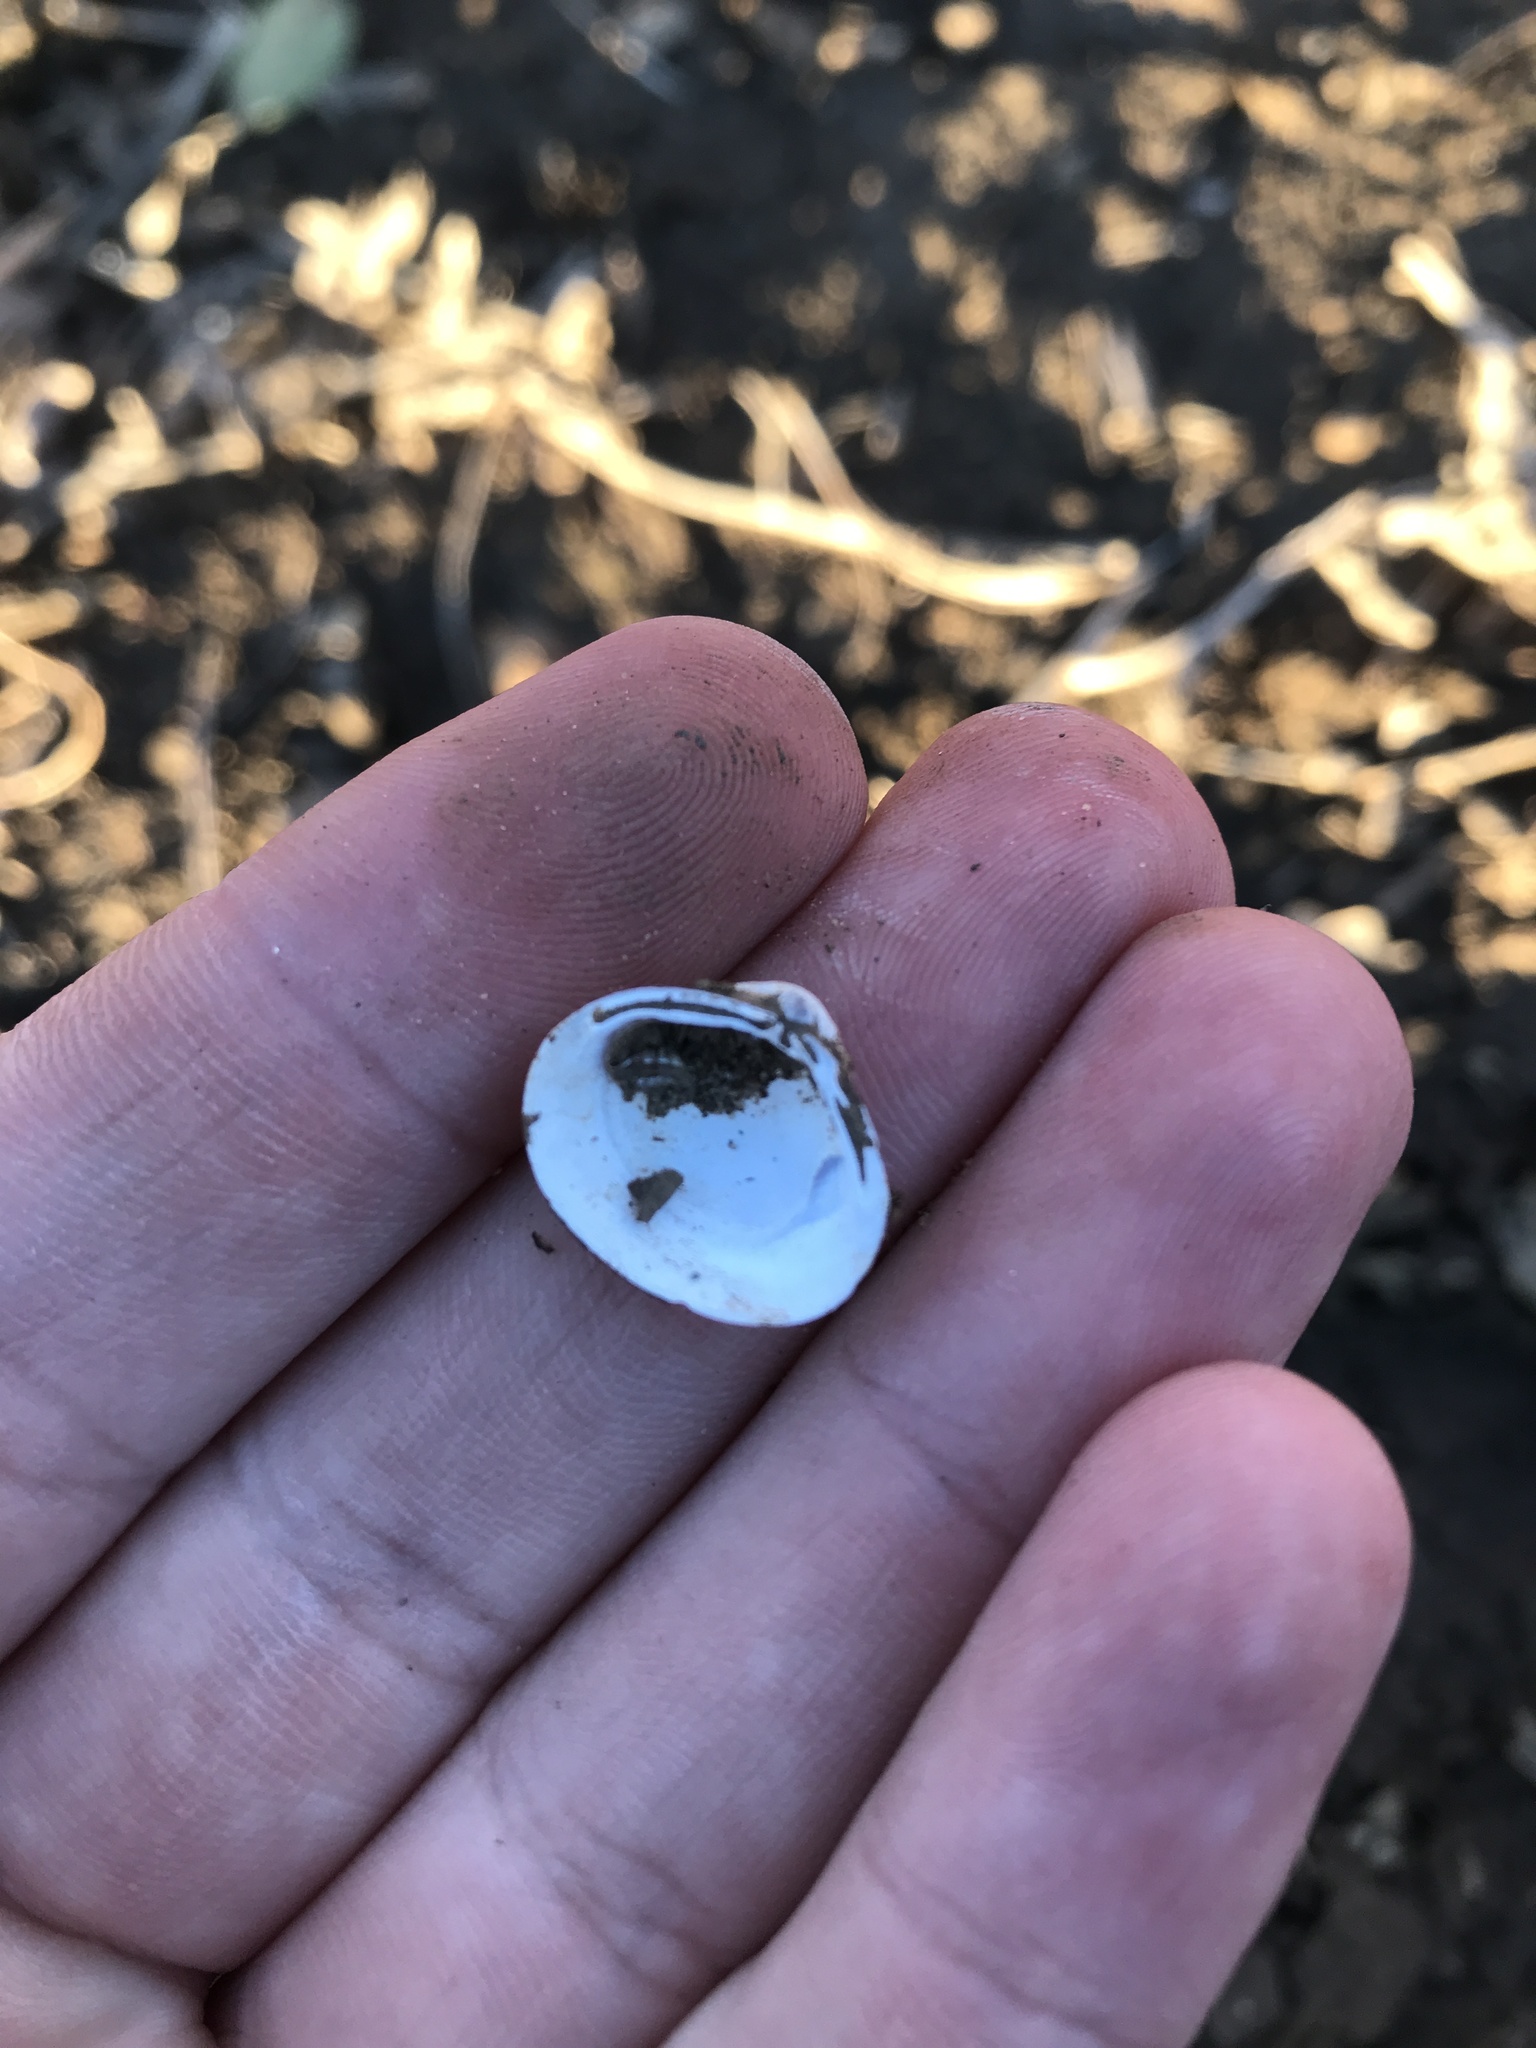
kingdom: Animalia
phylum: Mollusca
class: Bivalvia
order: Venerida
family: Cyrenidae
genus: Corbicula
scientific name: Corbicula fluminea
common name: Asian clam
